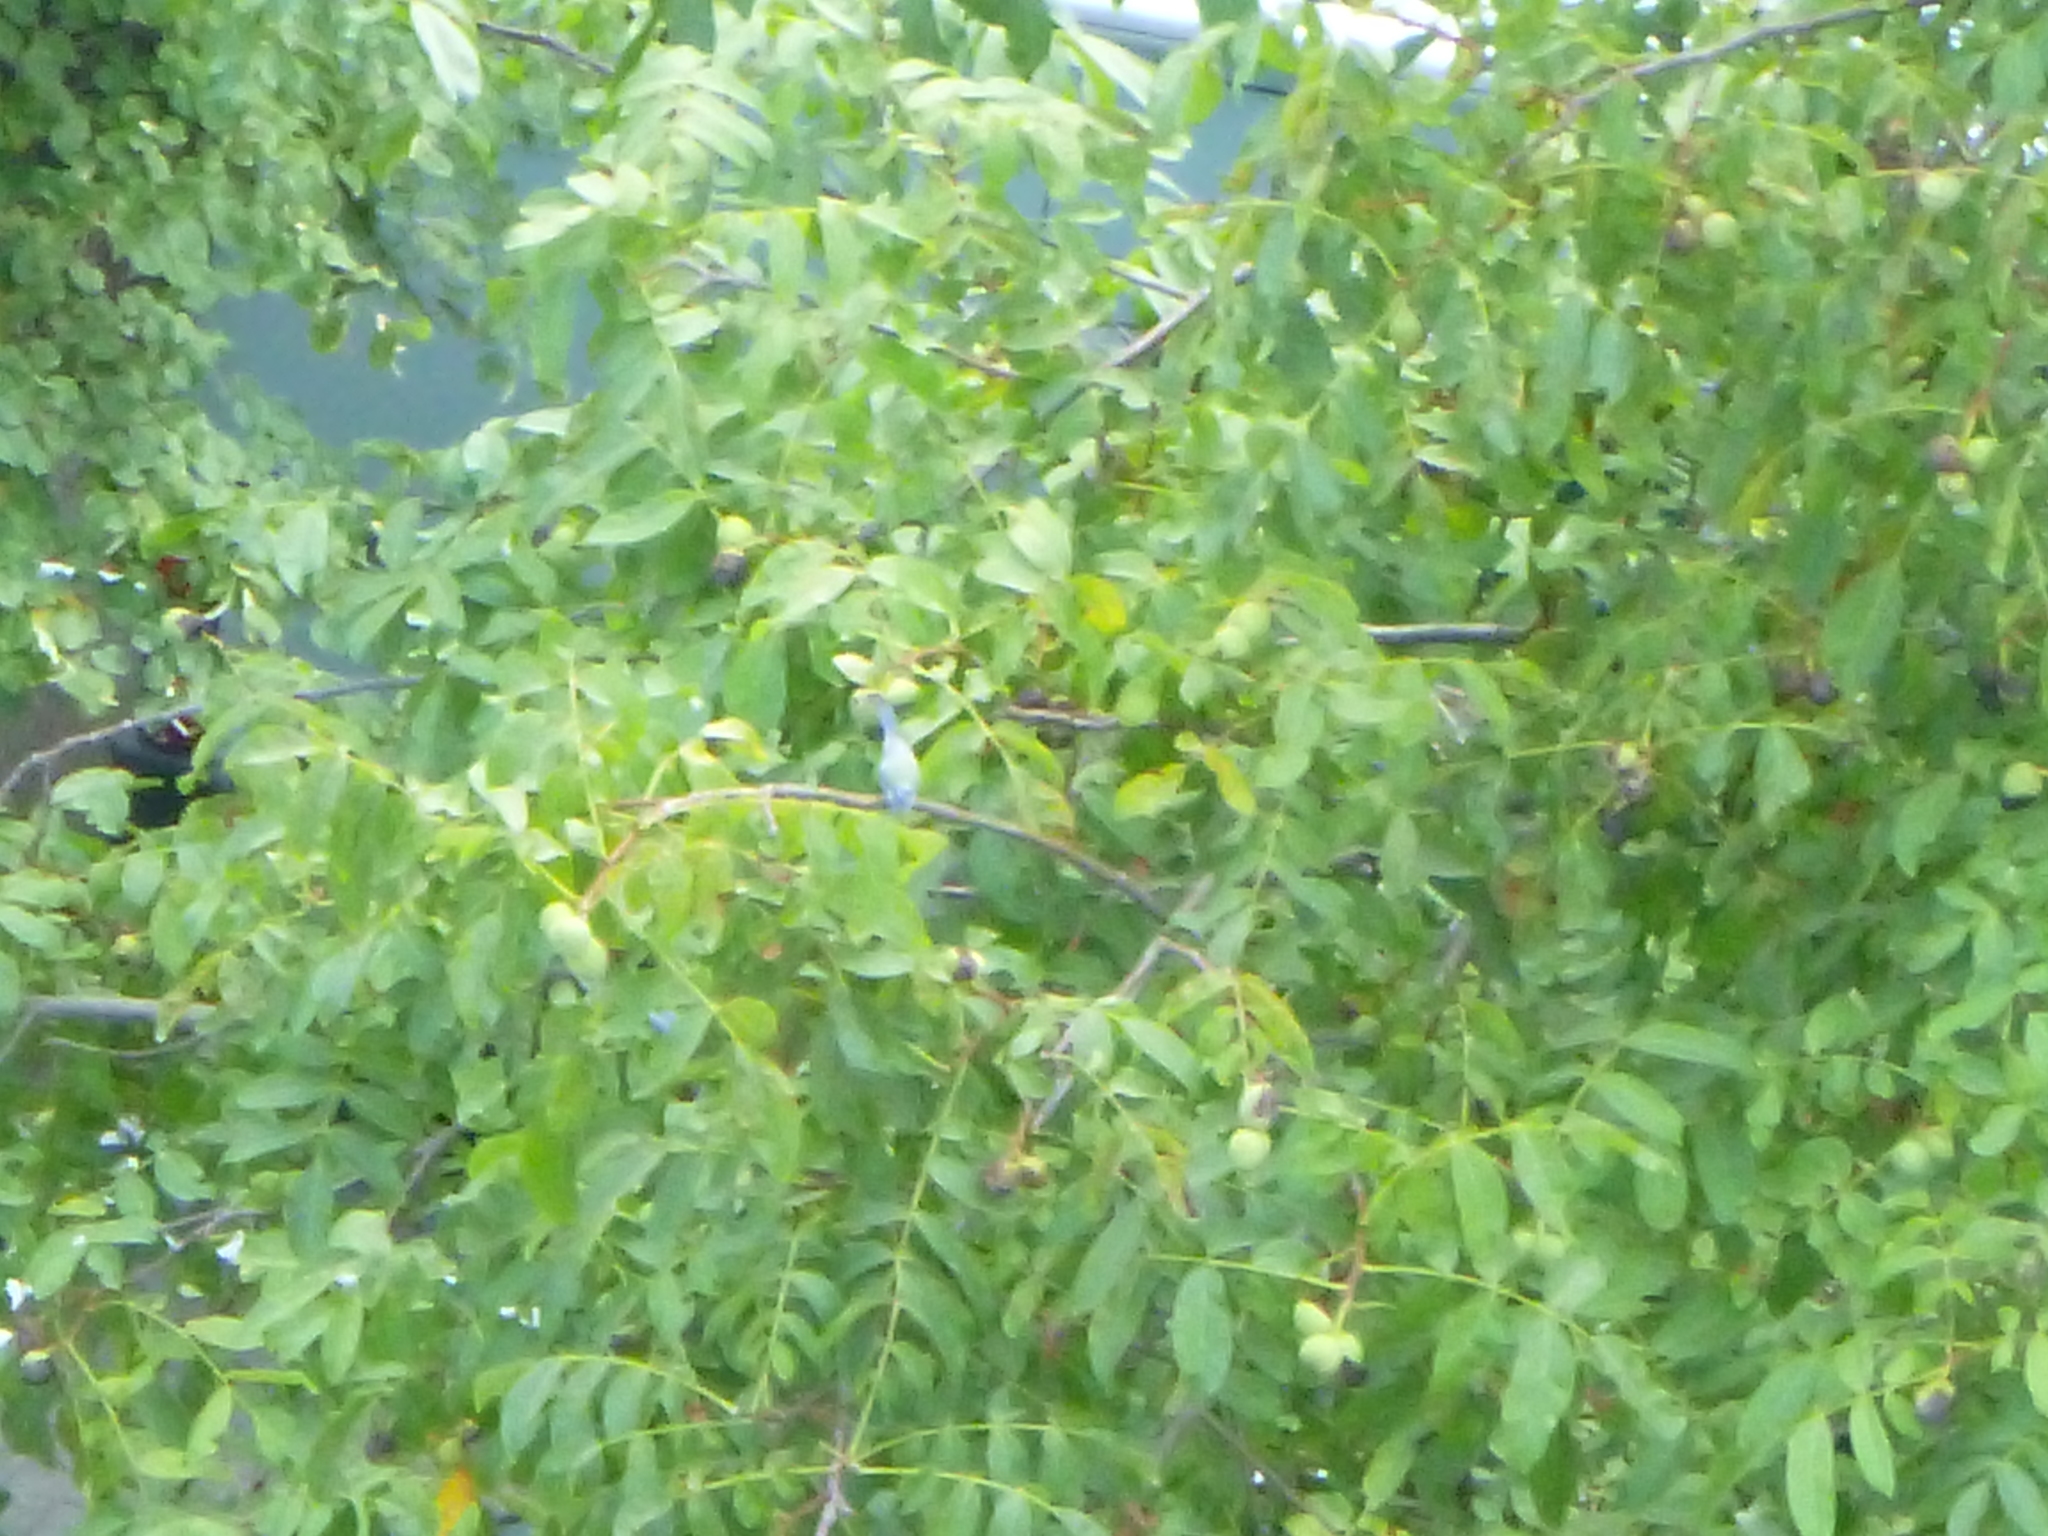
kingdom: Animalia
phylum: Chordata
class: Aves
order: Passeriformes
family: Paridae
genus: Cyanistes
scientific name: Cyanistes caeruleus
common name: Eurasian blue tit
